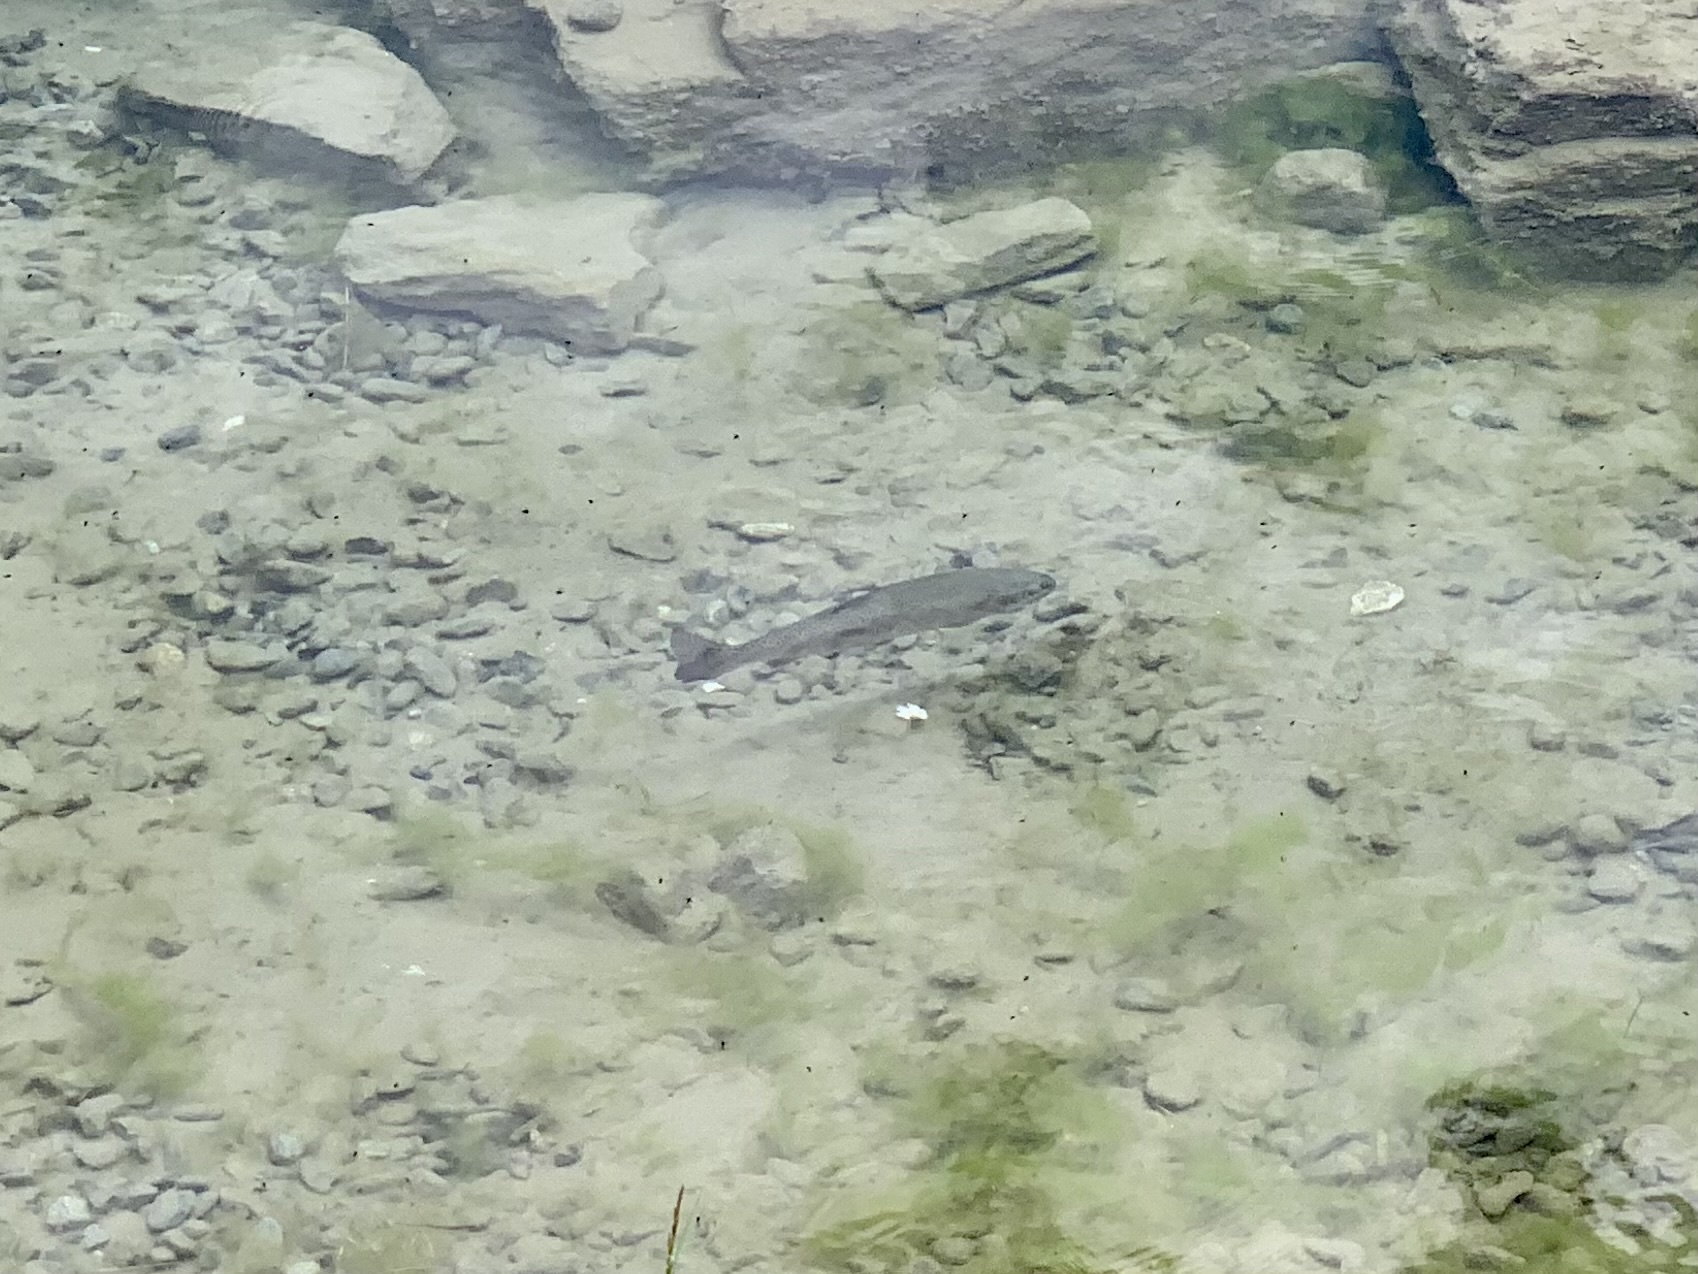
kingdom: Animalia
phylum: Chordata
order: Salmoniformes
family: Salmonidae
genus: Oncorhynchus
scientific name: Oncorhynchus mykiss
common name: Rainbow trout
